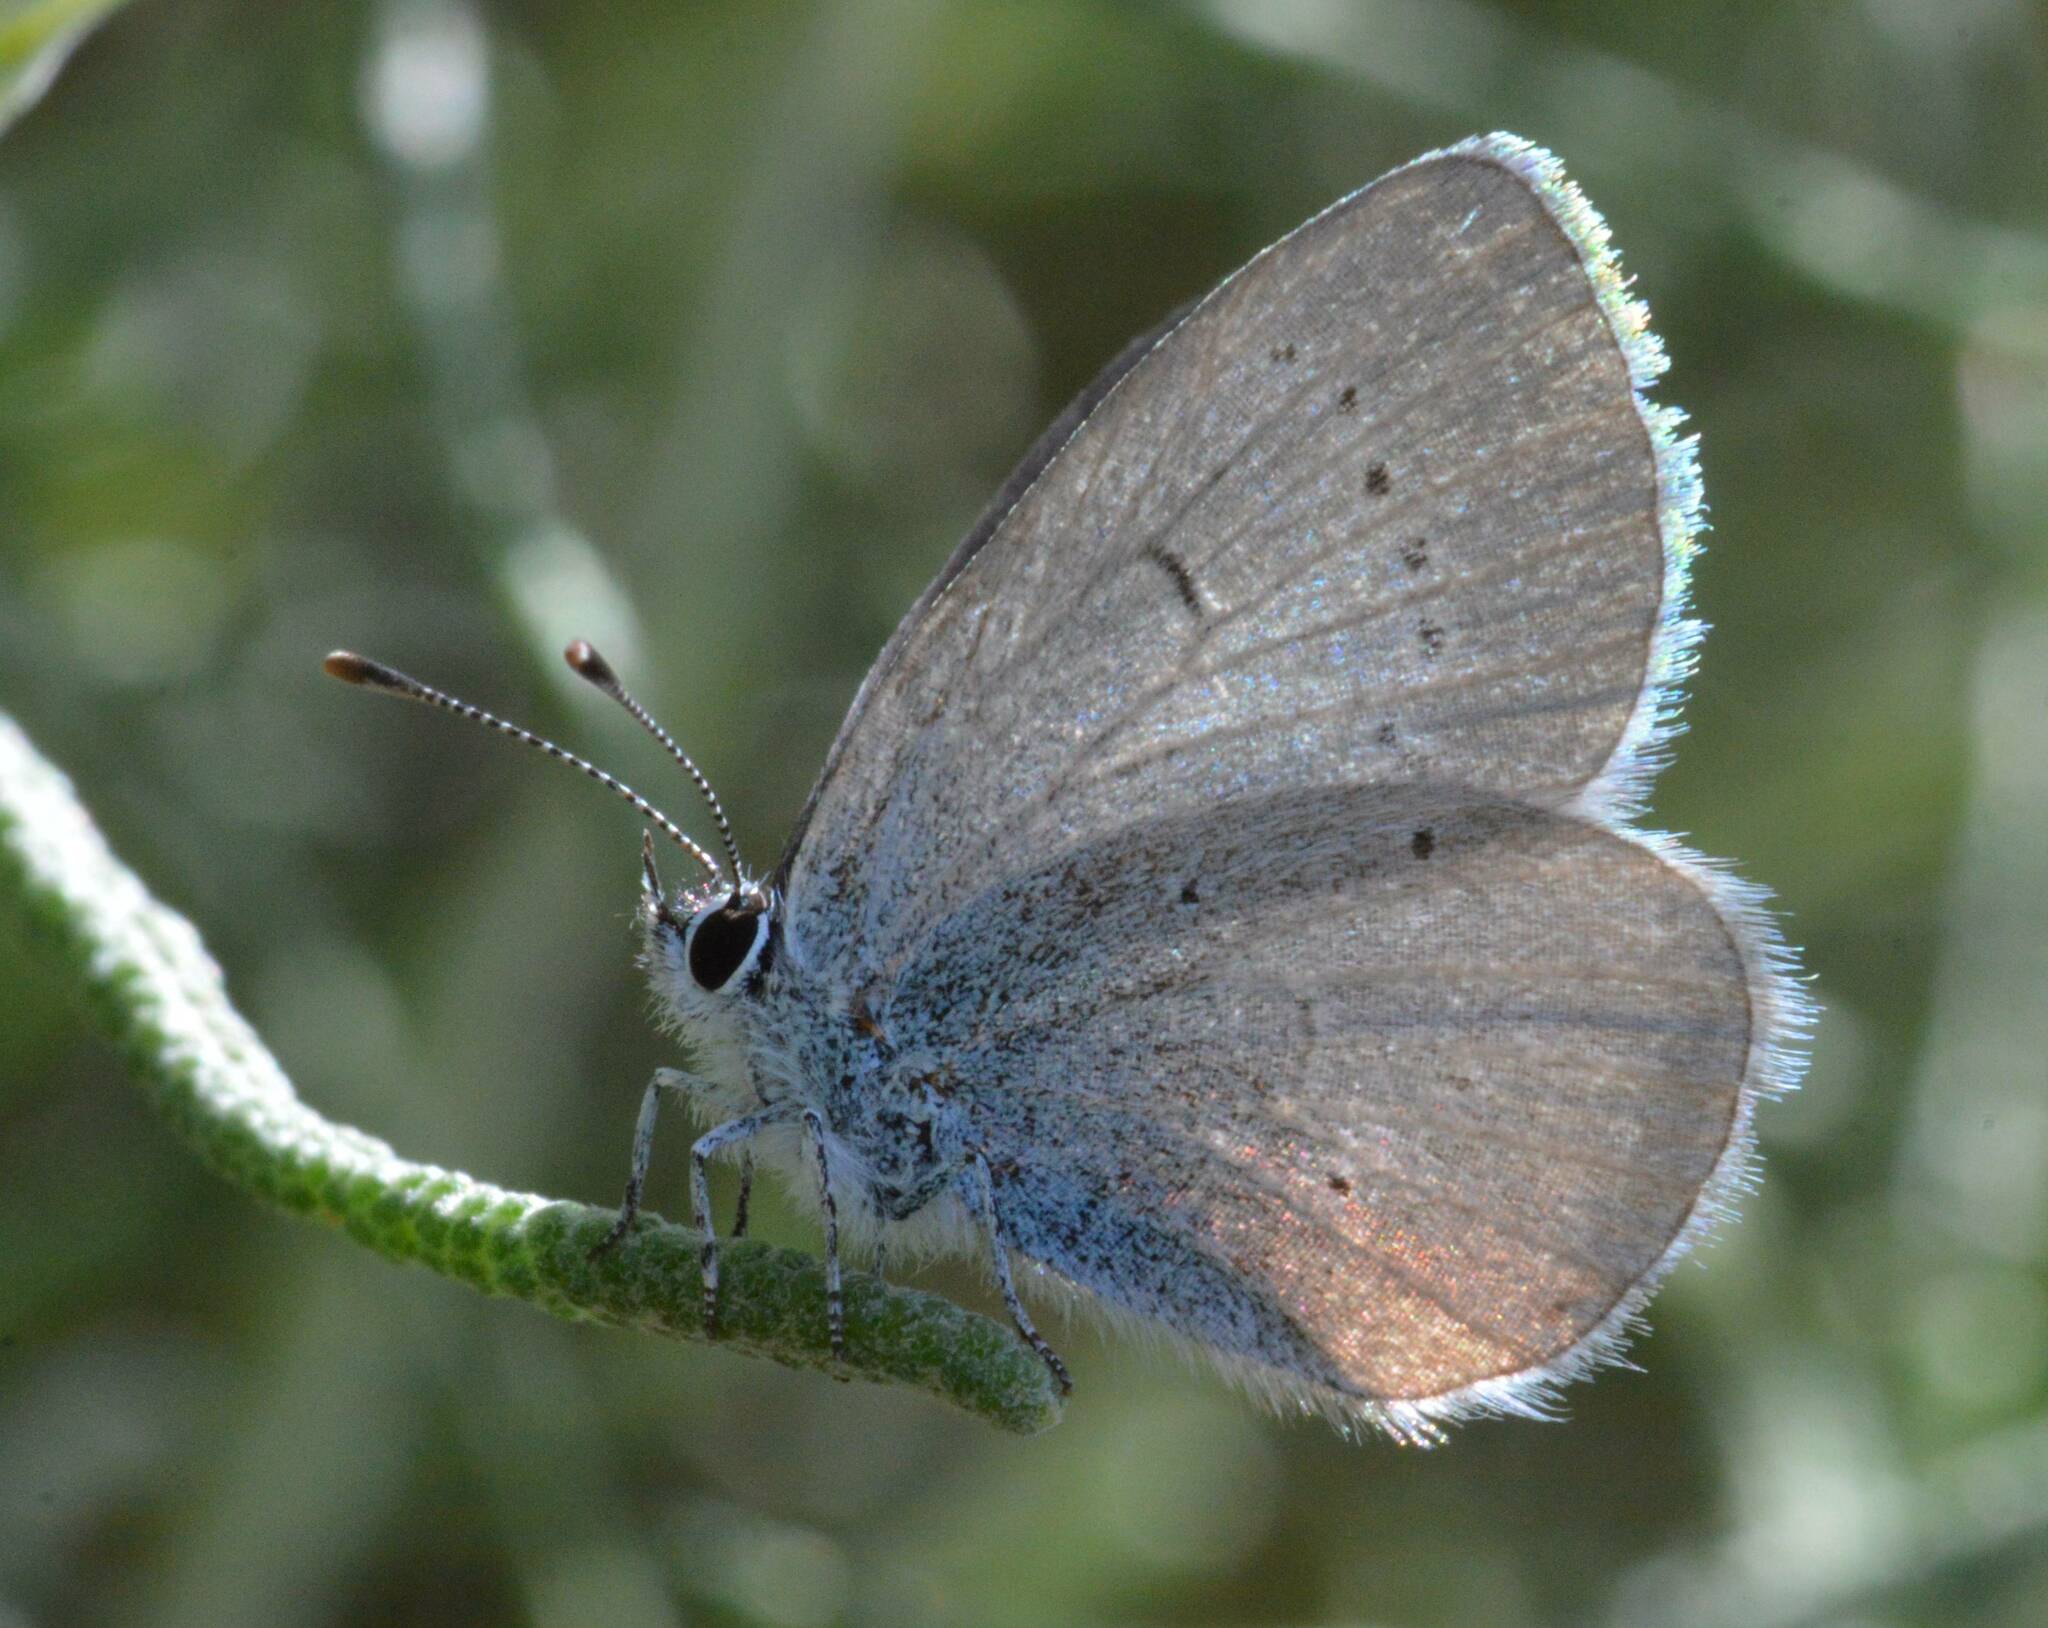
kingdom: Animalia
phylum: Arthropoda
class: Insecta
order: Lepidoptera
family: Lycaenidae
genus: Celastrina
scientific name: Celastrina argiolus
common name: Holly blue
